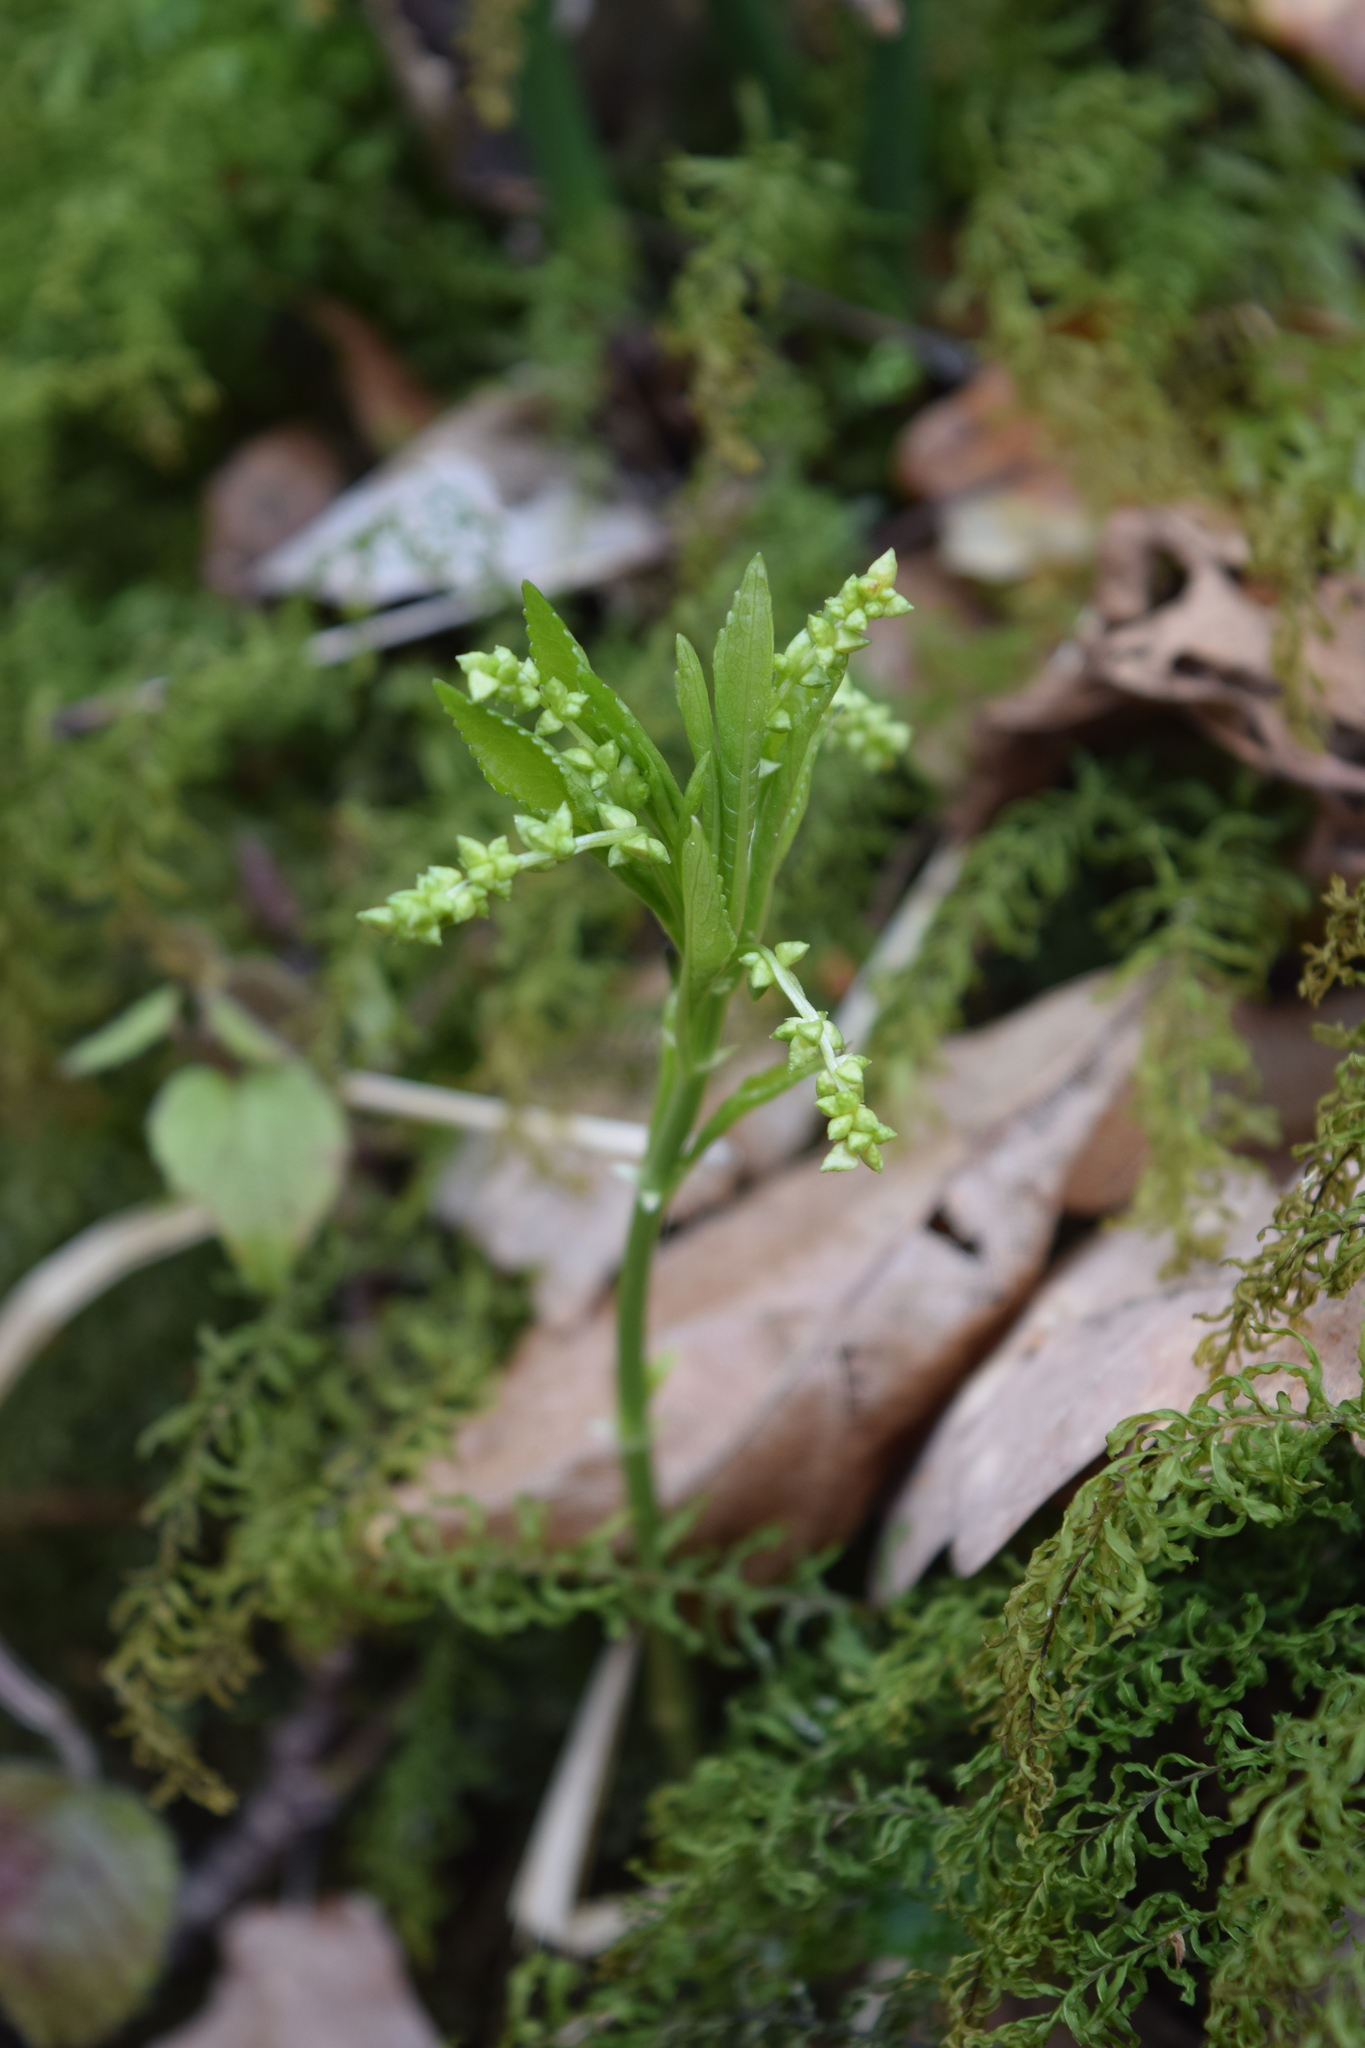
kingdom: Plantae
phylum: Tracheophyta
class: Magnoliopsida
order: Malpighiales
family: Euphorbiaceae
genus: Mercurialis
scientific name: Mercurialis perennis
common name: Dog mercury
